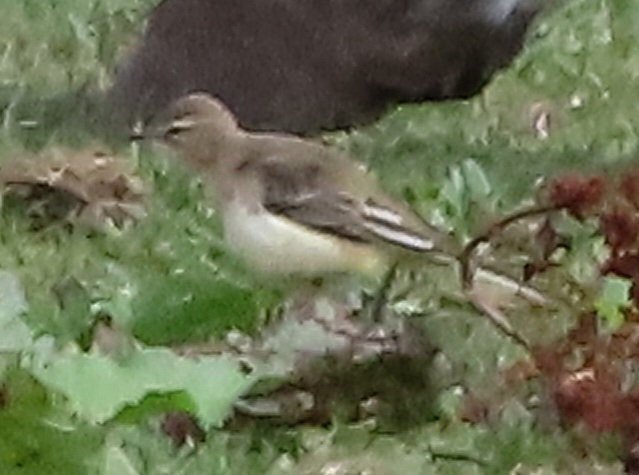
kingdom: Animalia
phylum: Chordata
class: Aves
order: Passeriformes
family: Motacillidae
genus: Motacilla
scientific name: Motacilla flava
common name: Western yellow wagtail
